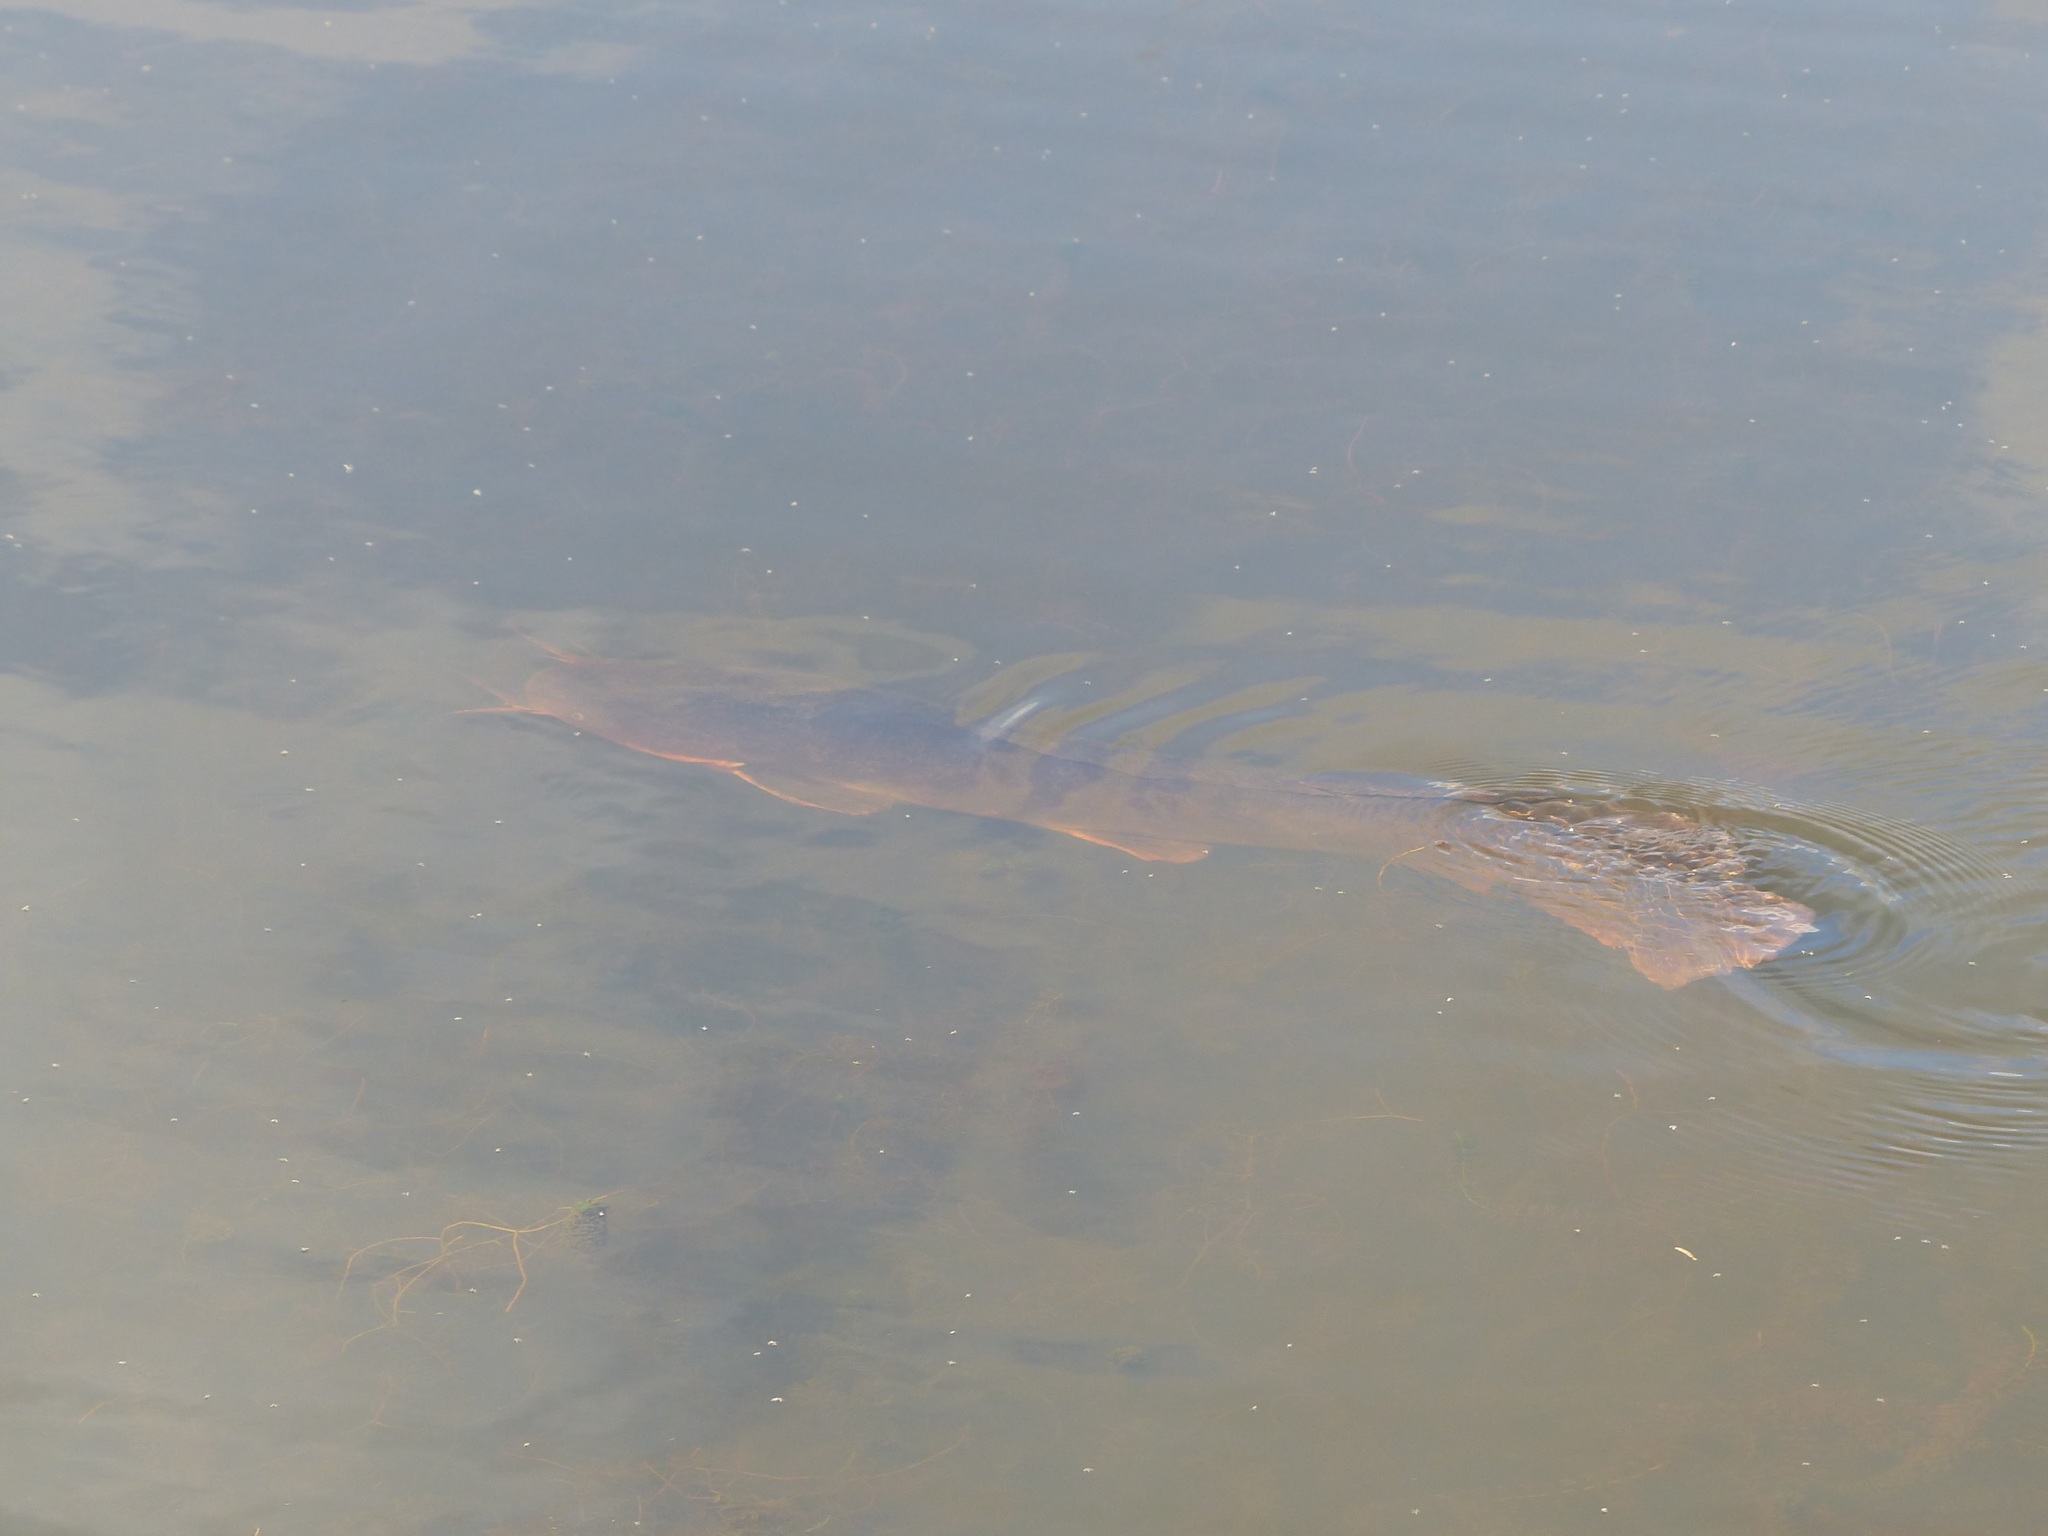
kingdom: Animalia
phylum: Chordata
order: Siluriformes
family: Clariidae
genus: Clarias
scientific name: Clarias gariepinus
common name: African catfish
